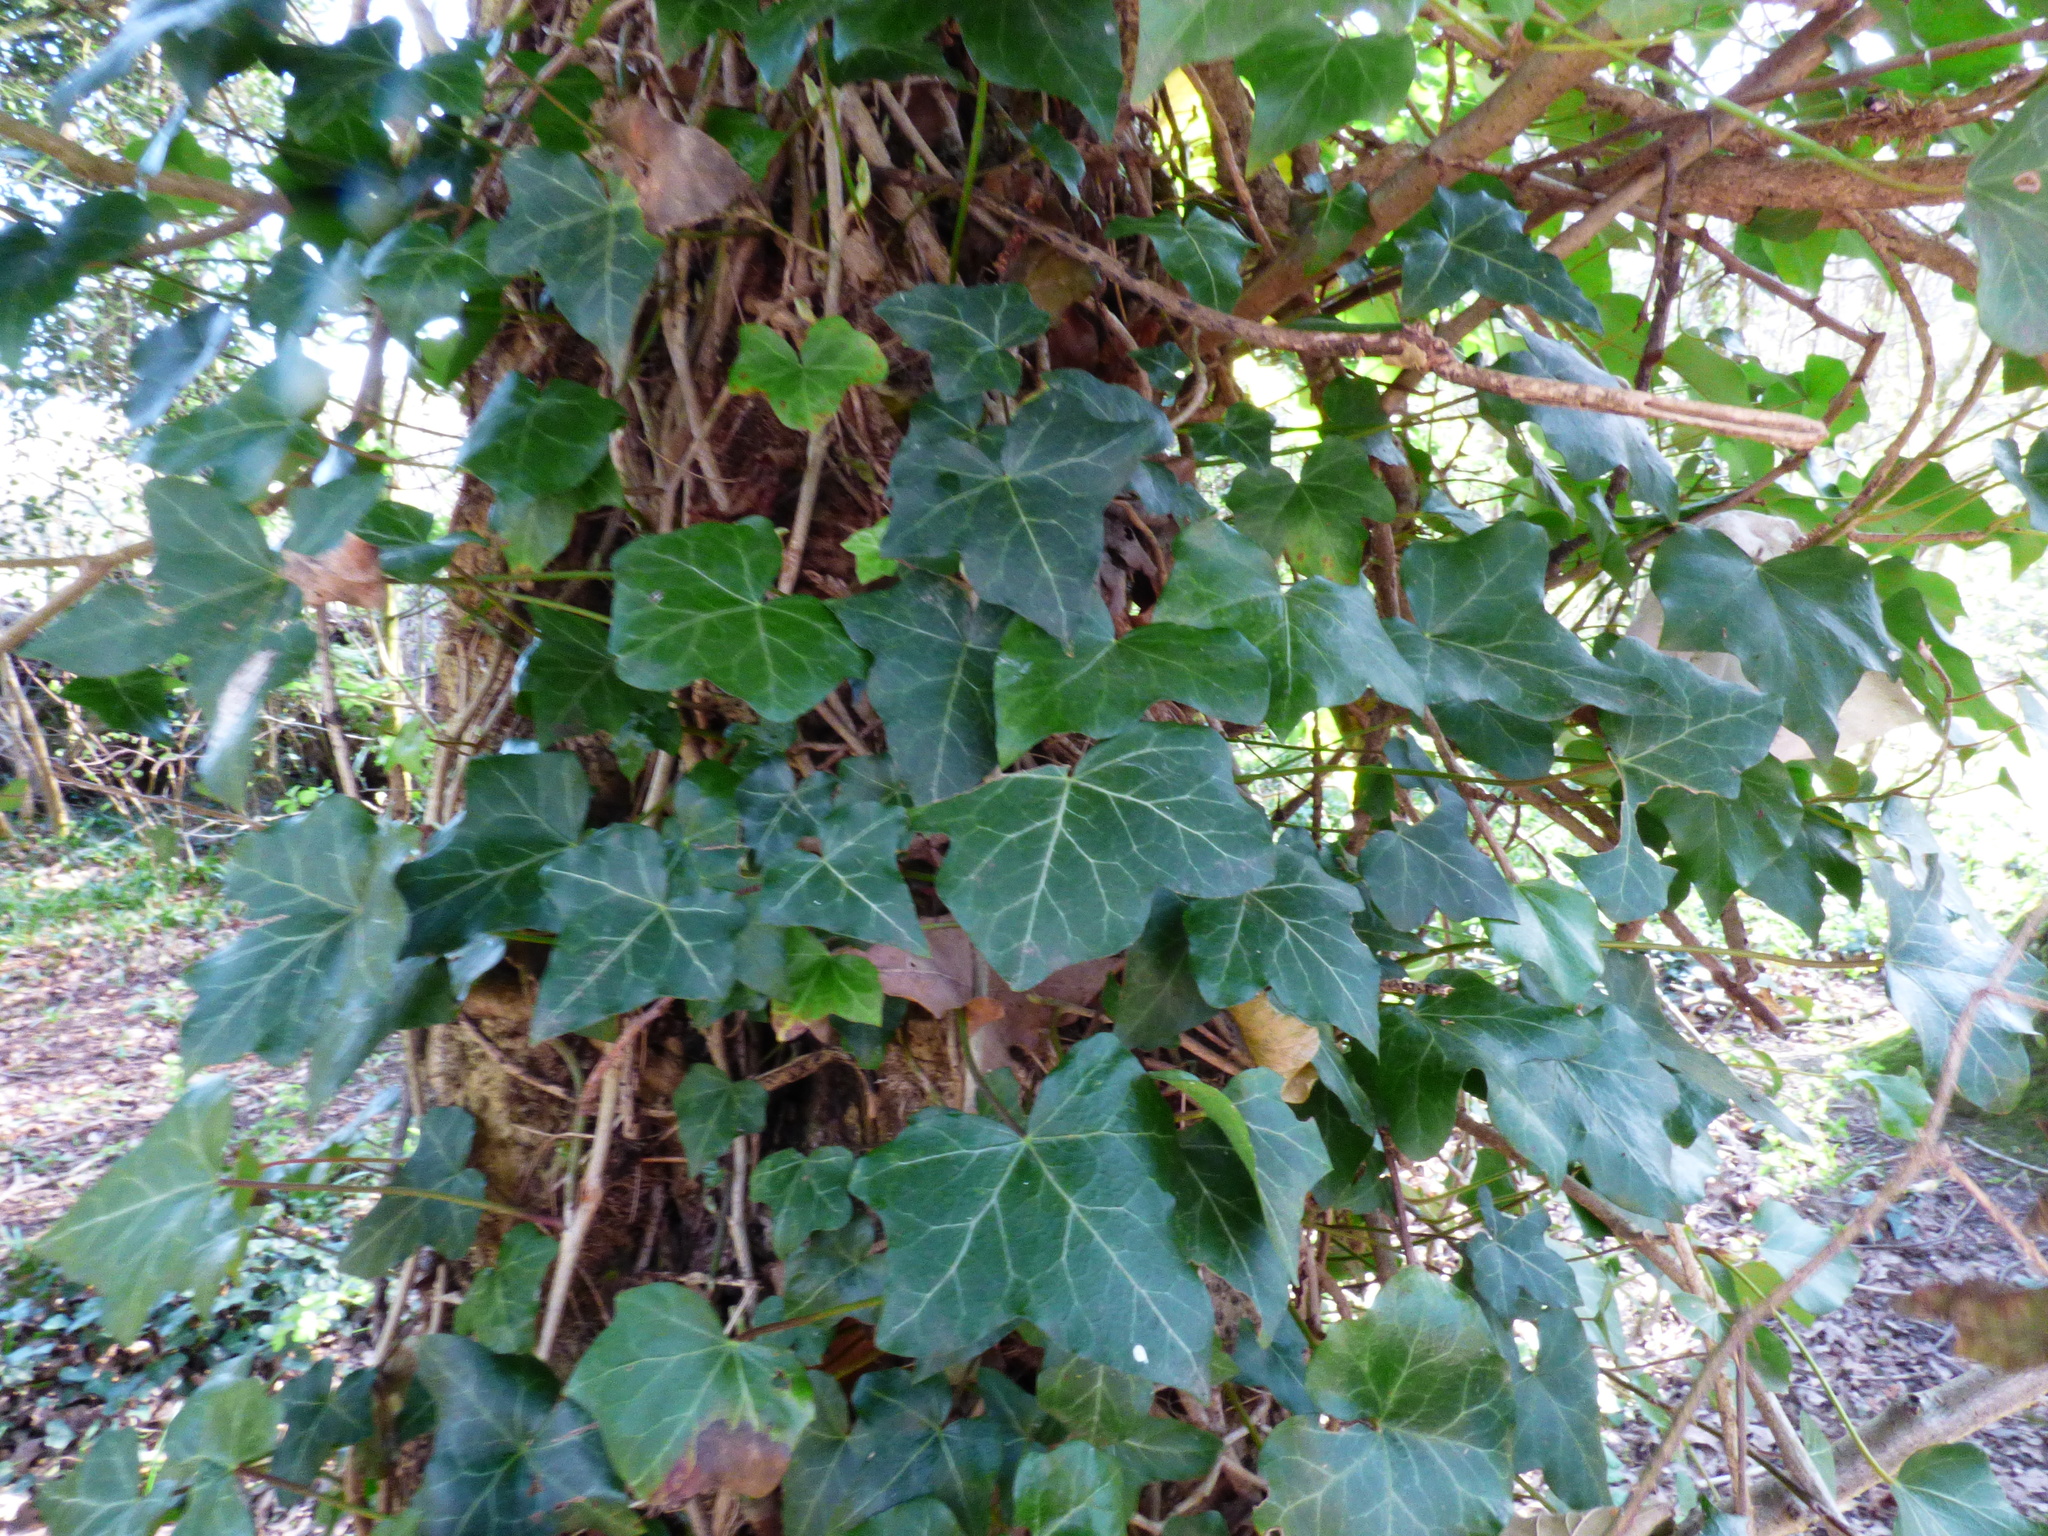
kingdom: Plantae
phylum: Tracheophyta
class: Magnoliopsida
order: Apiales
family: Araliaceae
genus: Hedera
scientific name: Hedera helix
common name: Ivy
